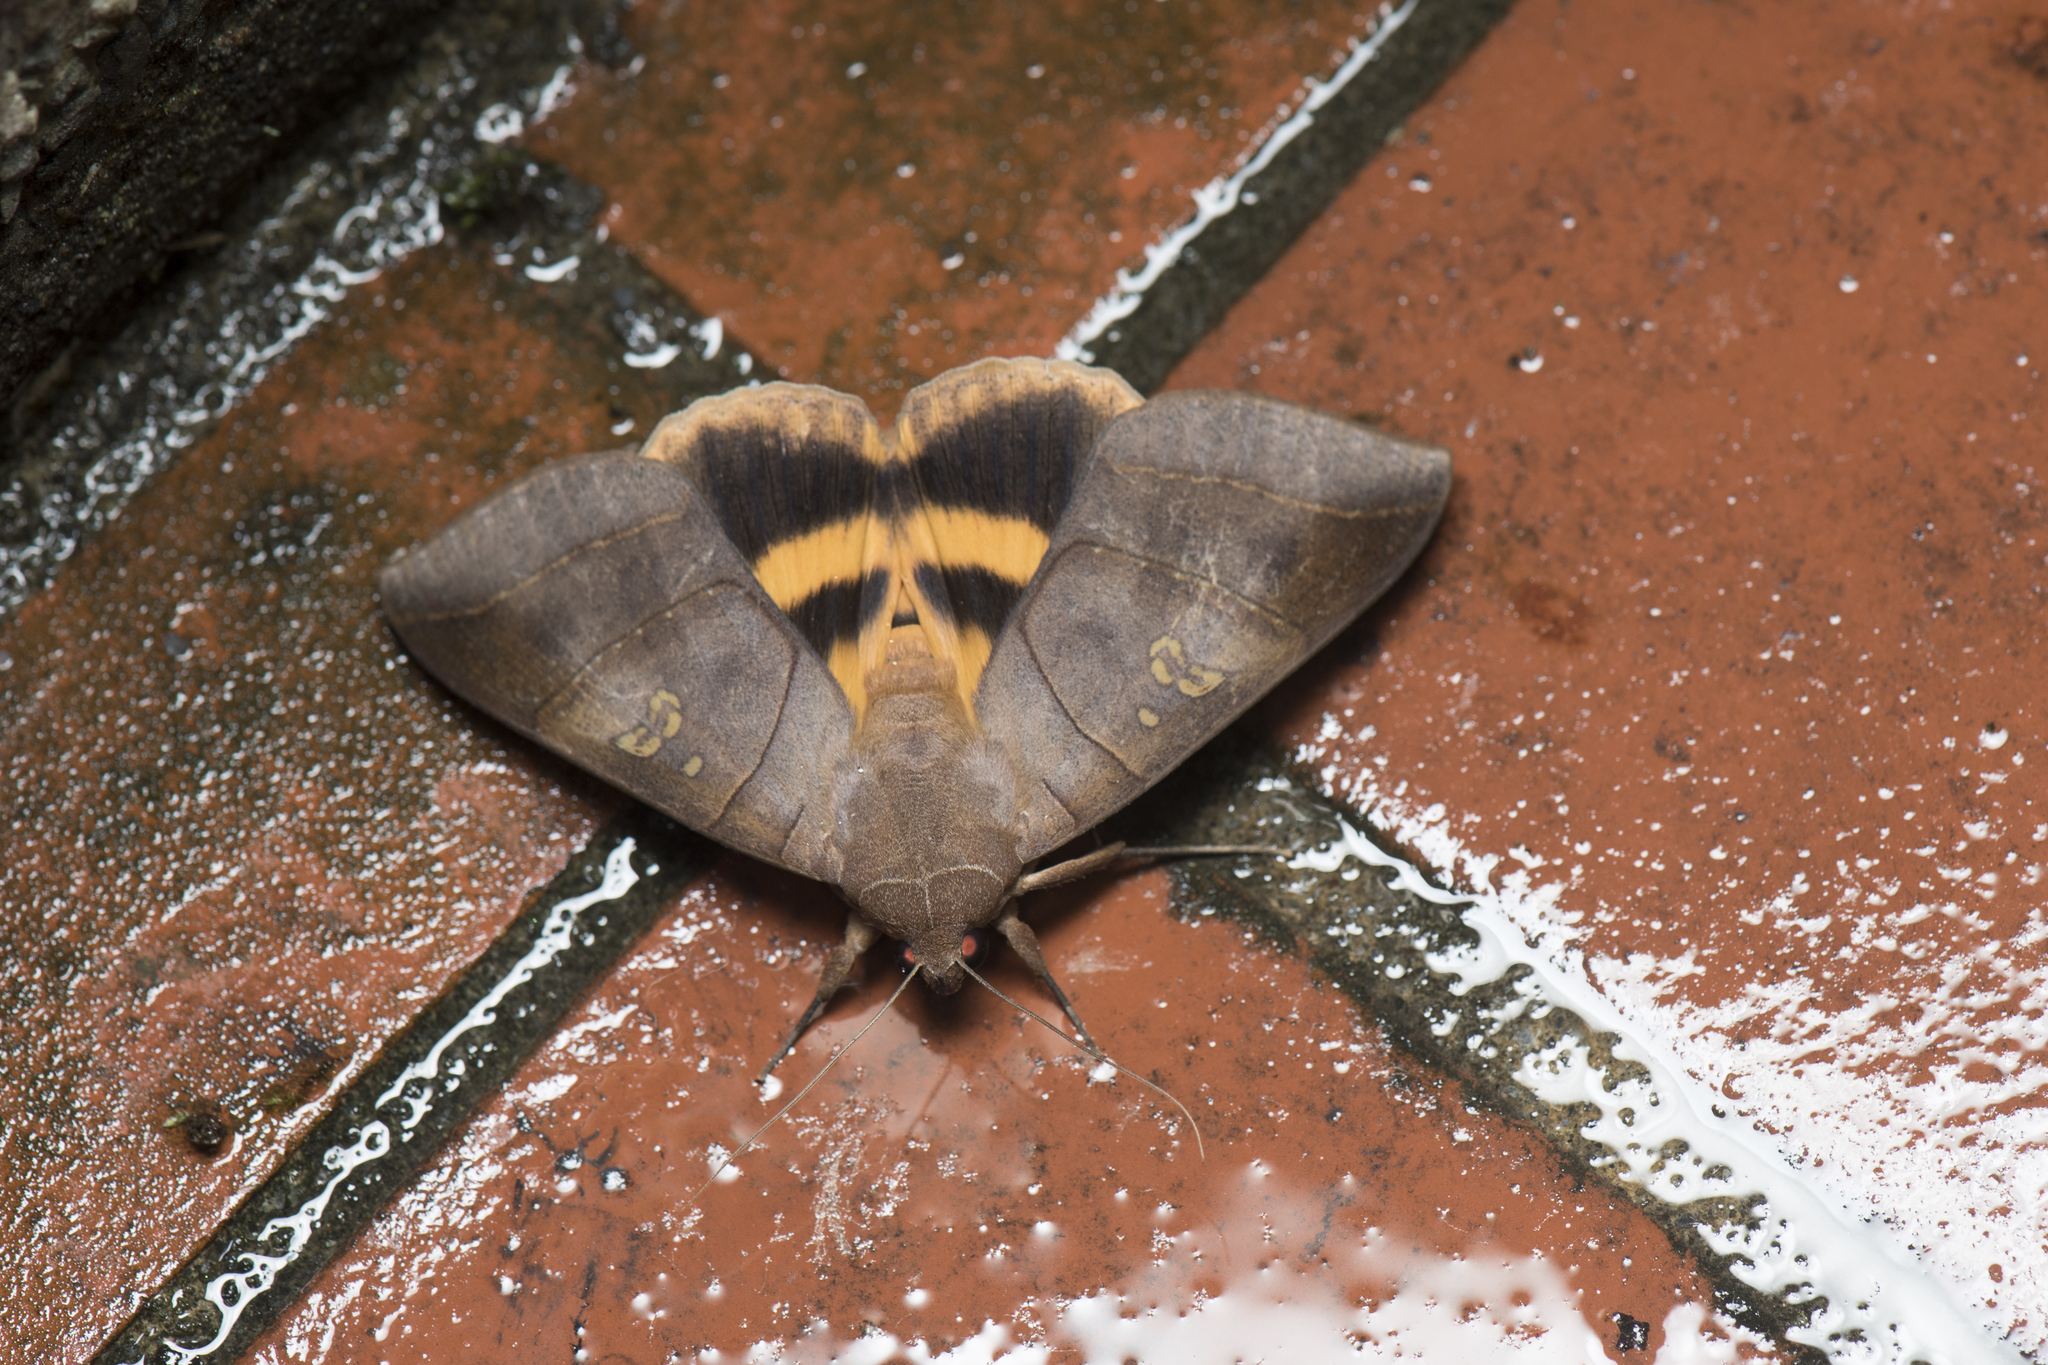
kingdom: Animalia
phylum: Arthropoda
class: Insecta
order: Lepidoptera
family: Erebidae
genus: Thyas
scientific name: Thyas coronata
